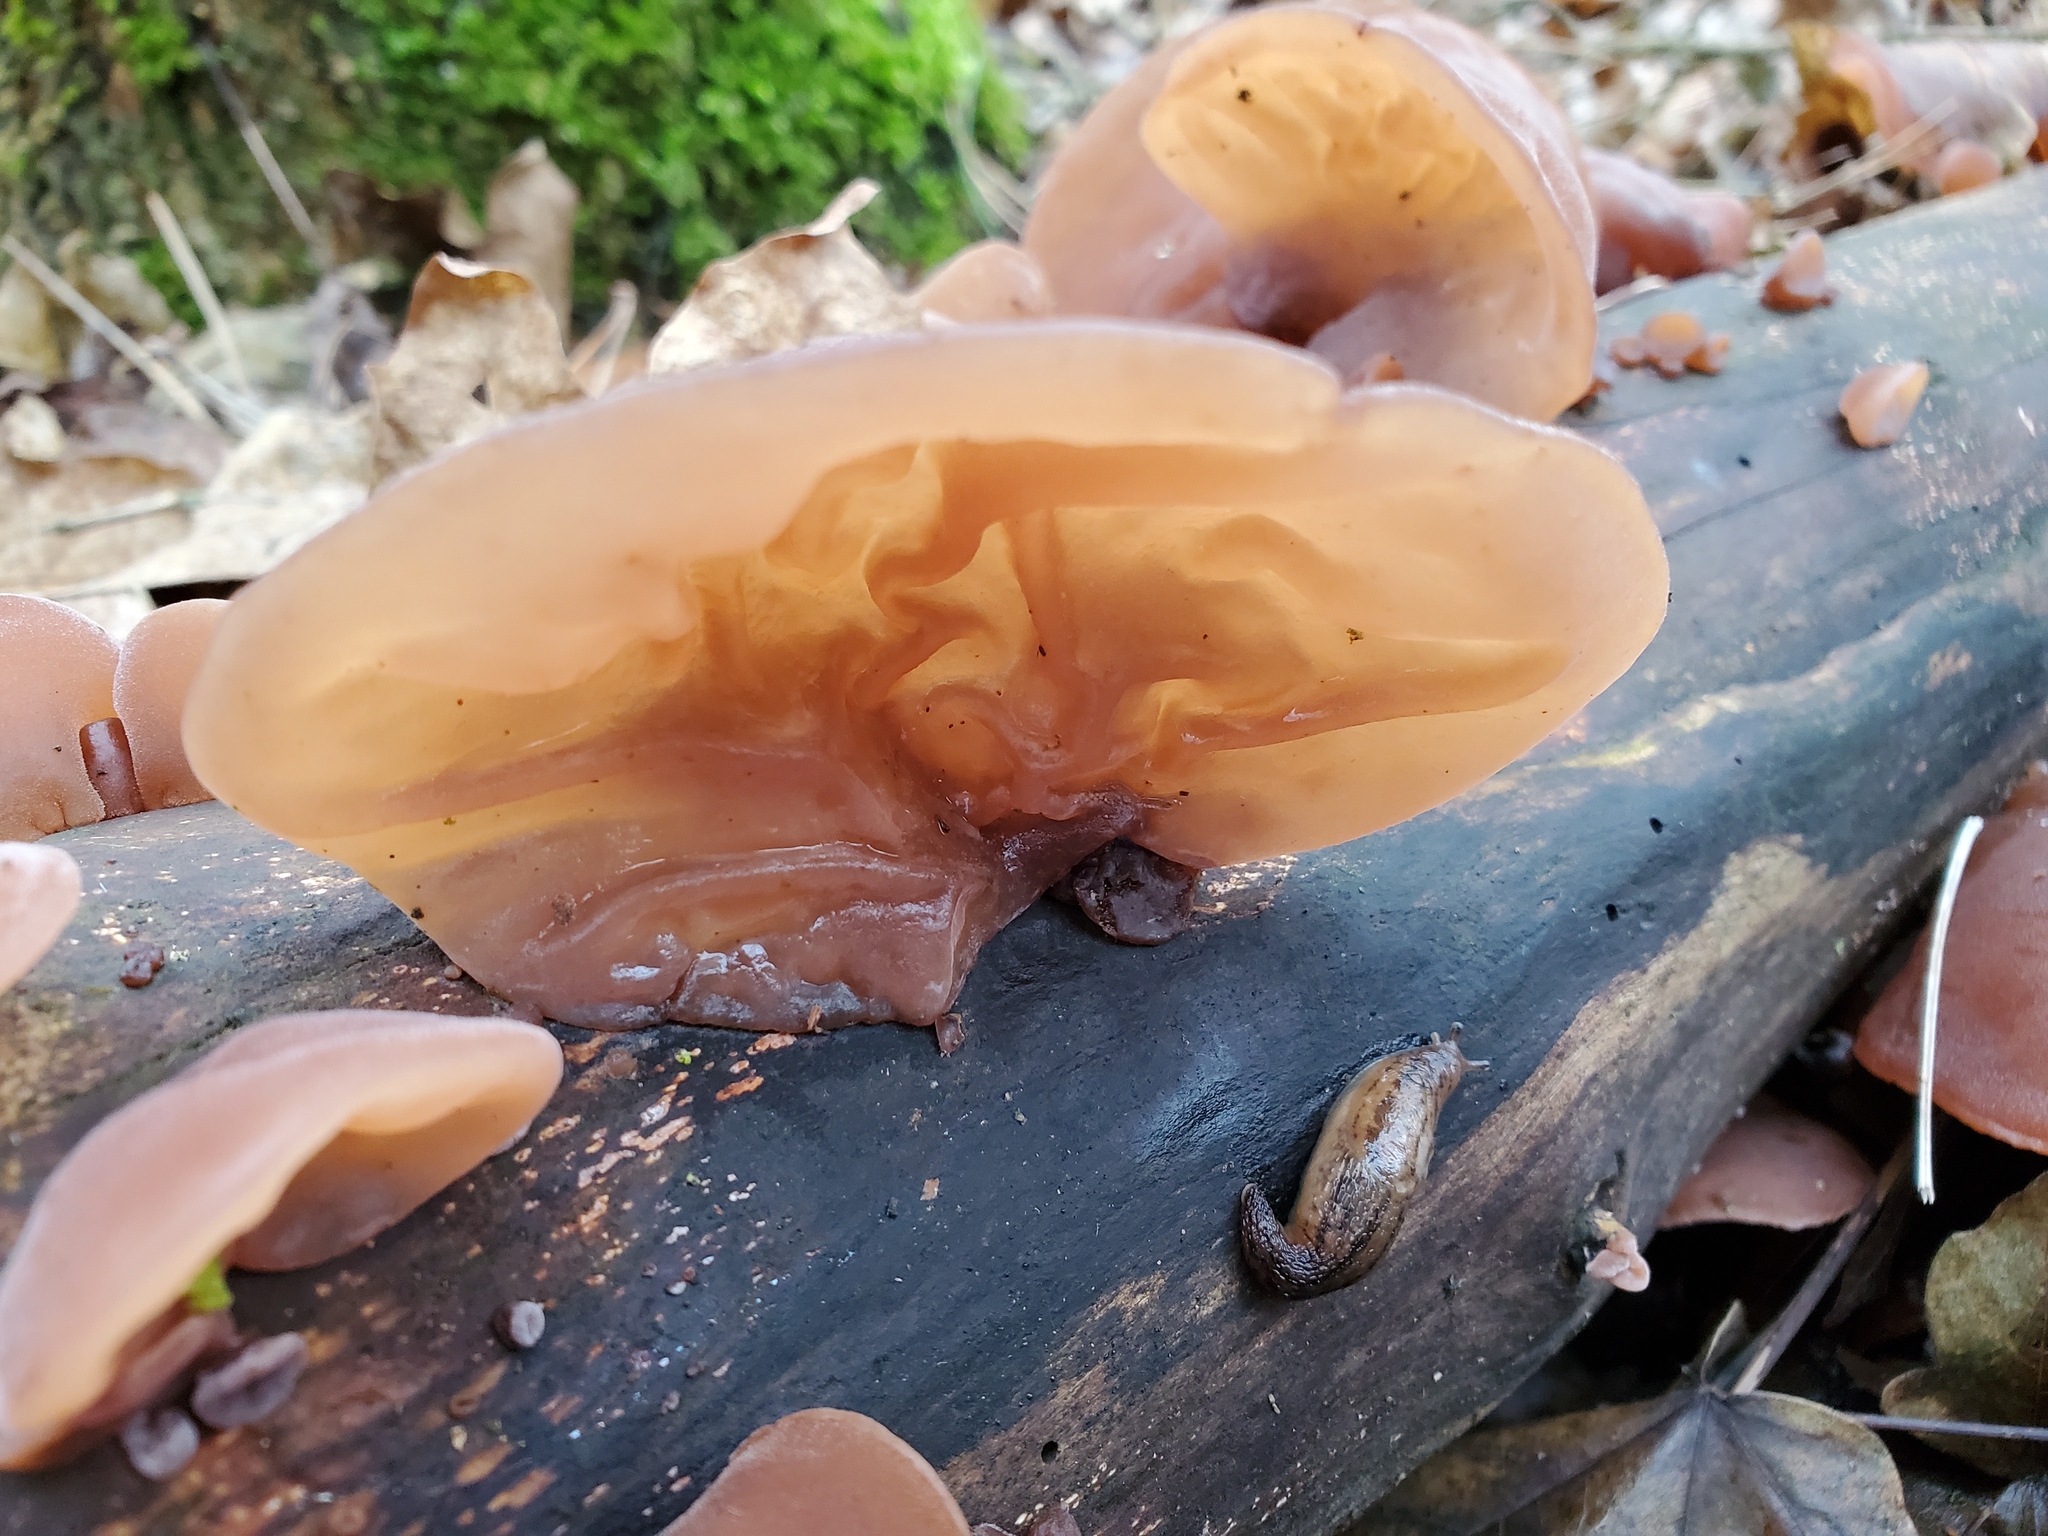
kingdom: Fungi
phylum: Basidiomycota
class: Agaricomycetes
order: Auriculariales
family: Auriculariaceae
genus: Auricularia
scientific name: Auricularia auricula-judae
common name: Jelly ear
